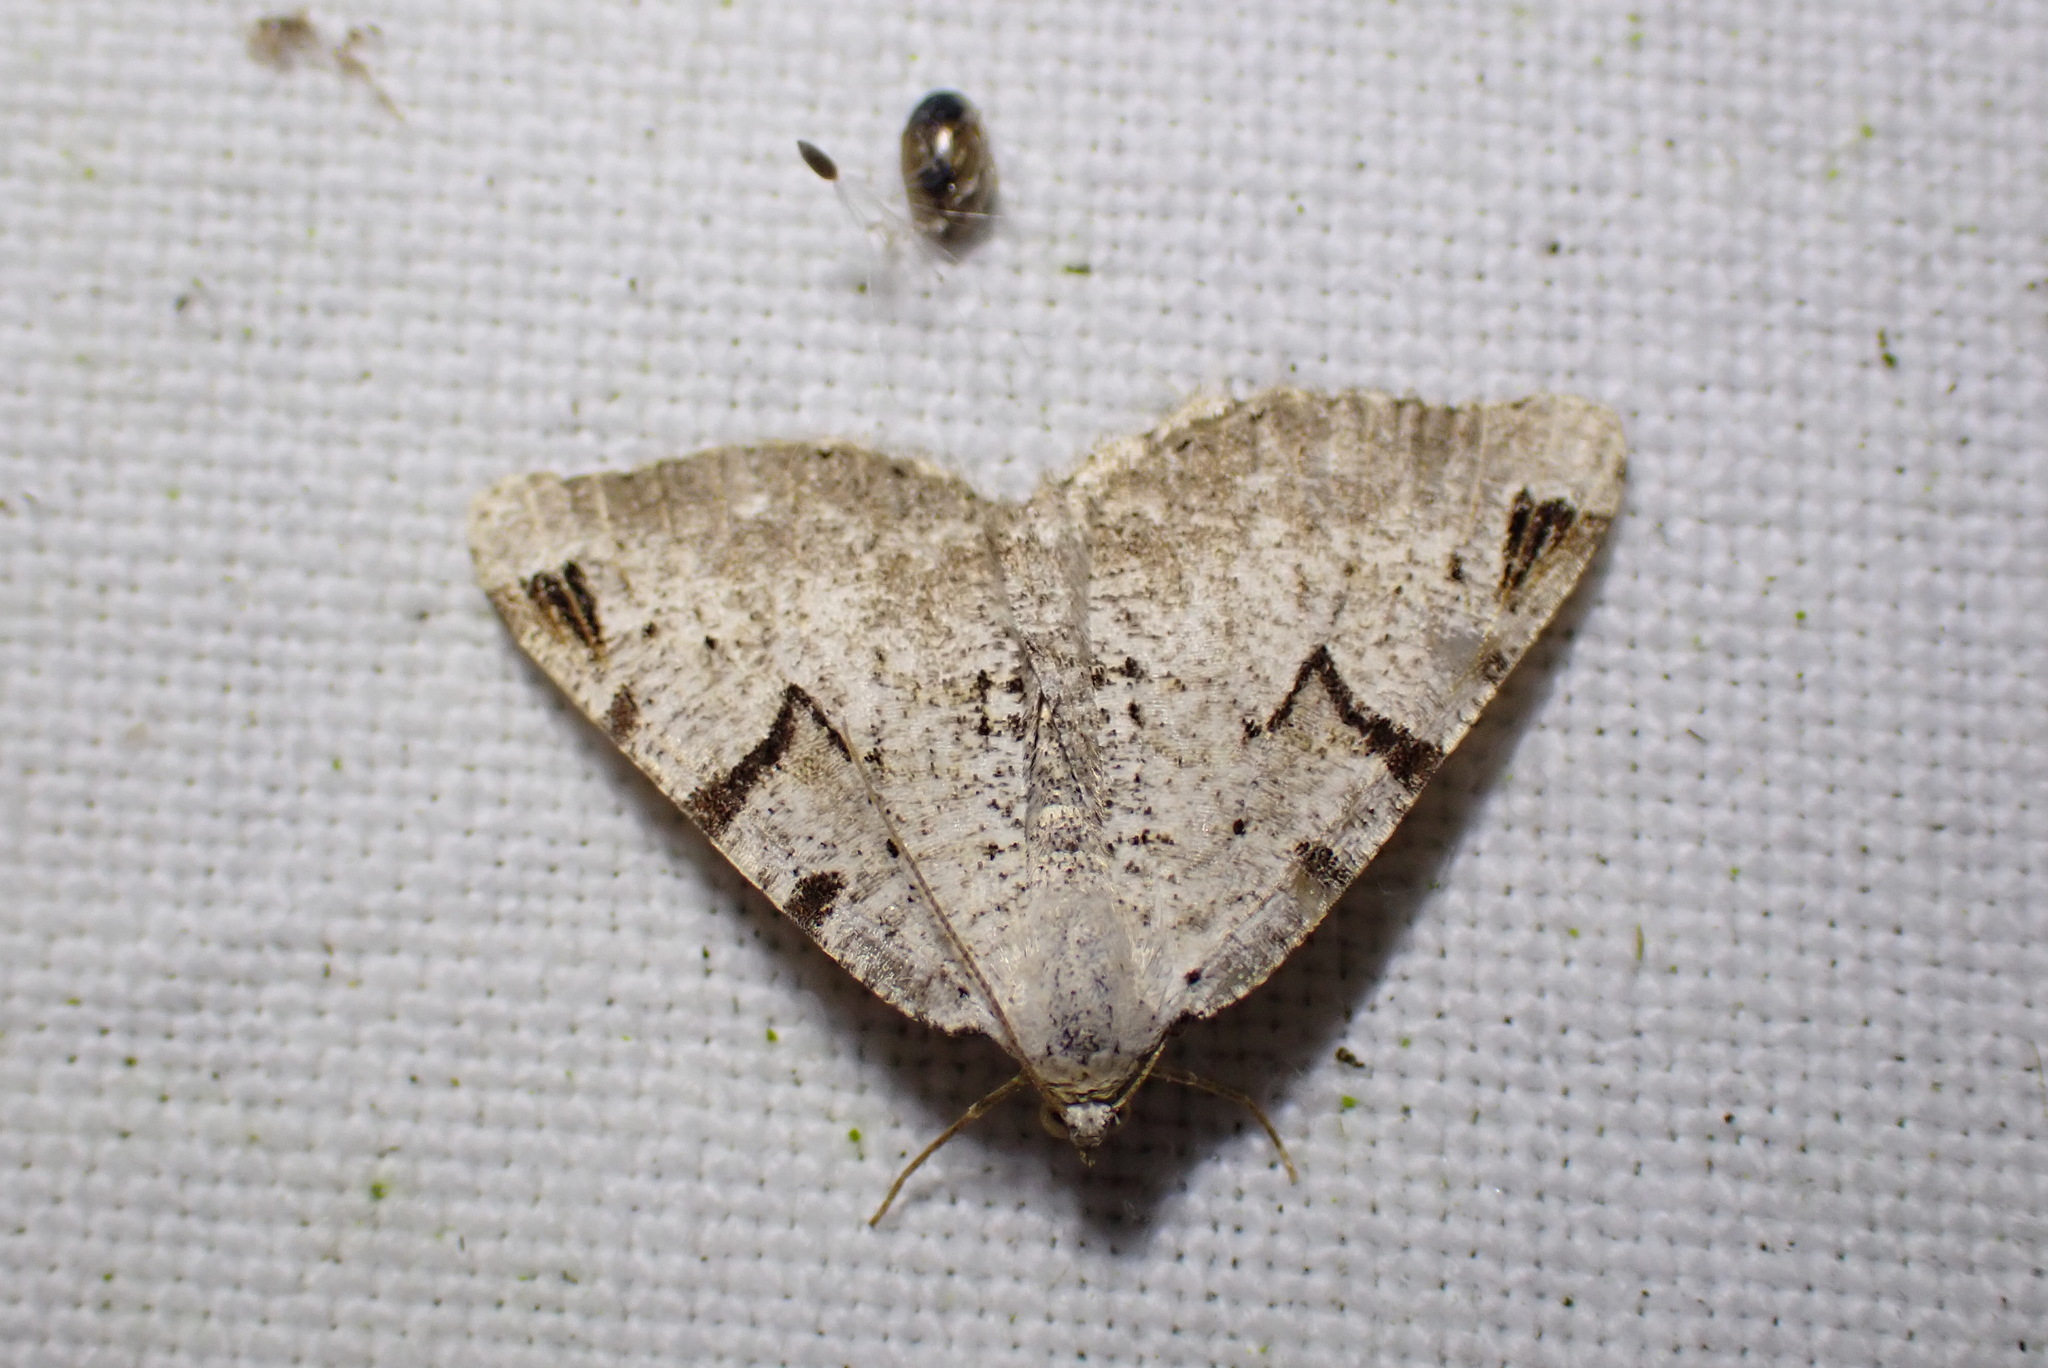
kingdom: Animalia
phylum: Arthropoda
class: Insecta
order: Lepidoptera
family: Geometridae
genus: Macaria
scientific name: Macaria wauaria
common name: V-moth
